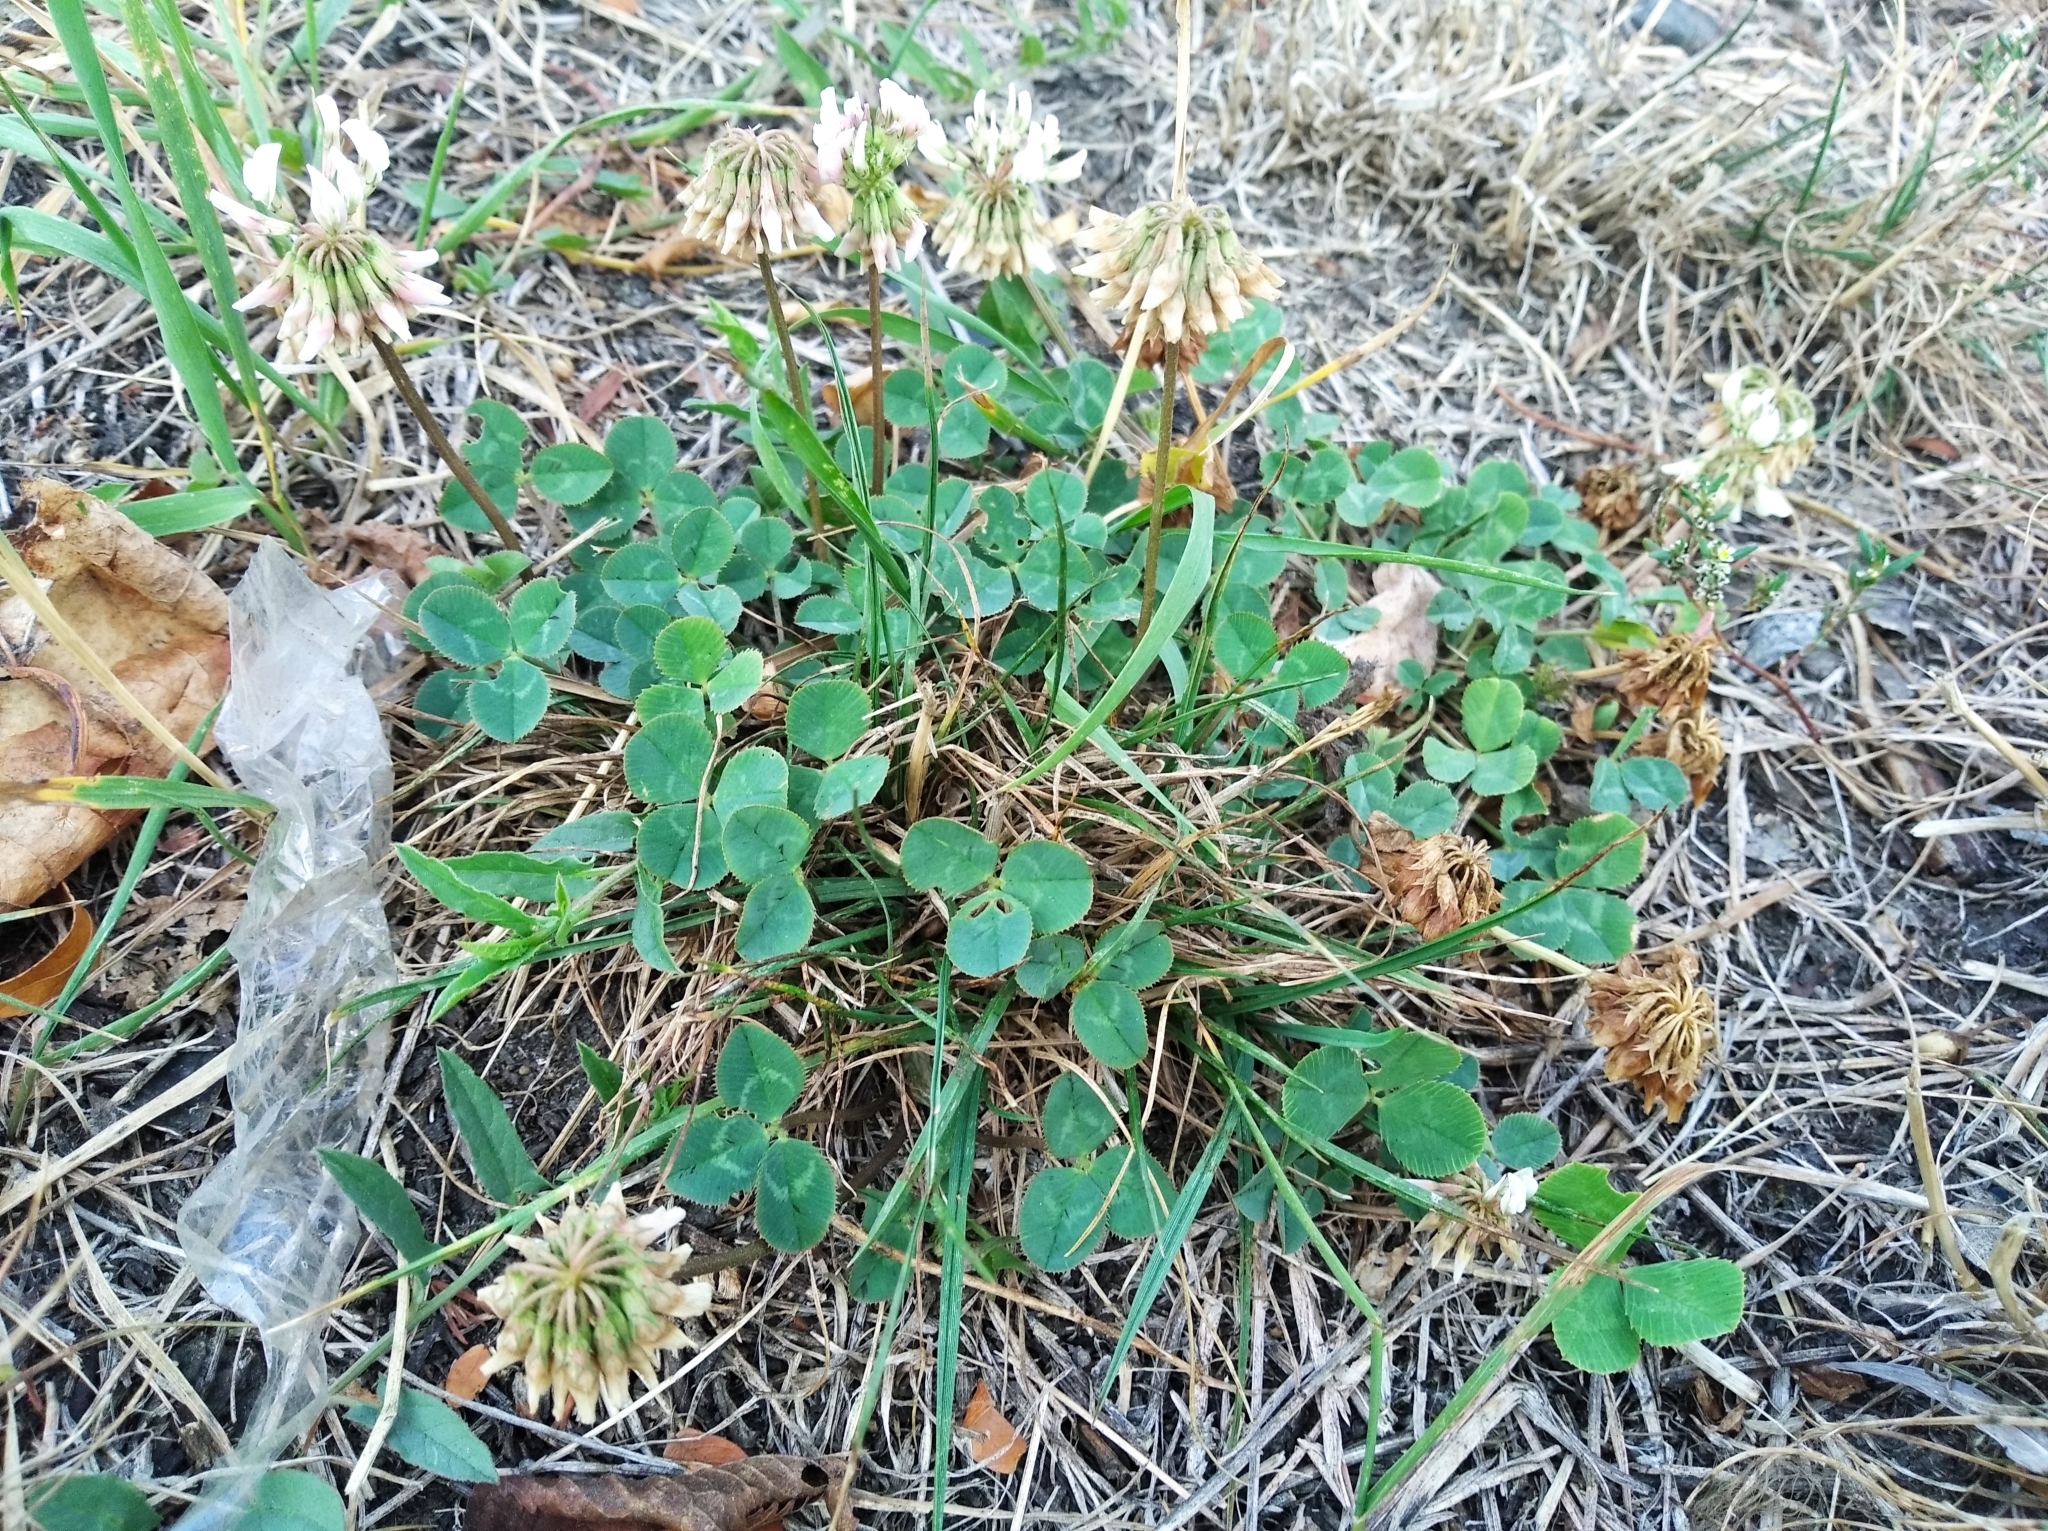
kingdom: Plantae
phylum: Tracheophyta
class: Magnoliopsida
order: Fabales
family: Fabaceae
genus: Trifolium
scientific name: Trifolium repens
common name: White clover
